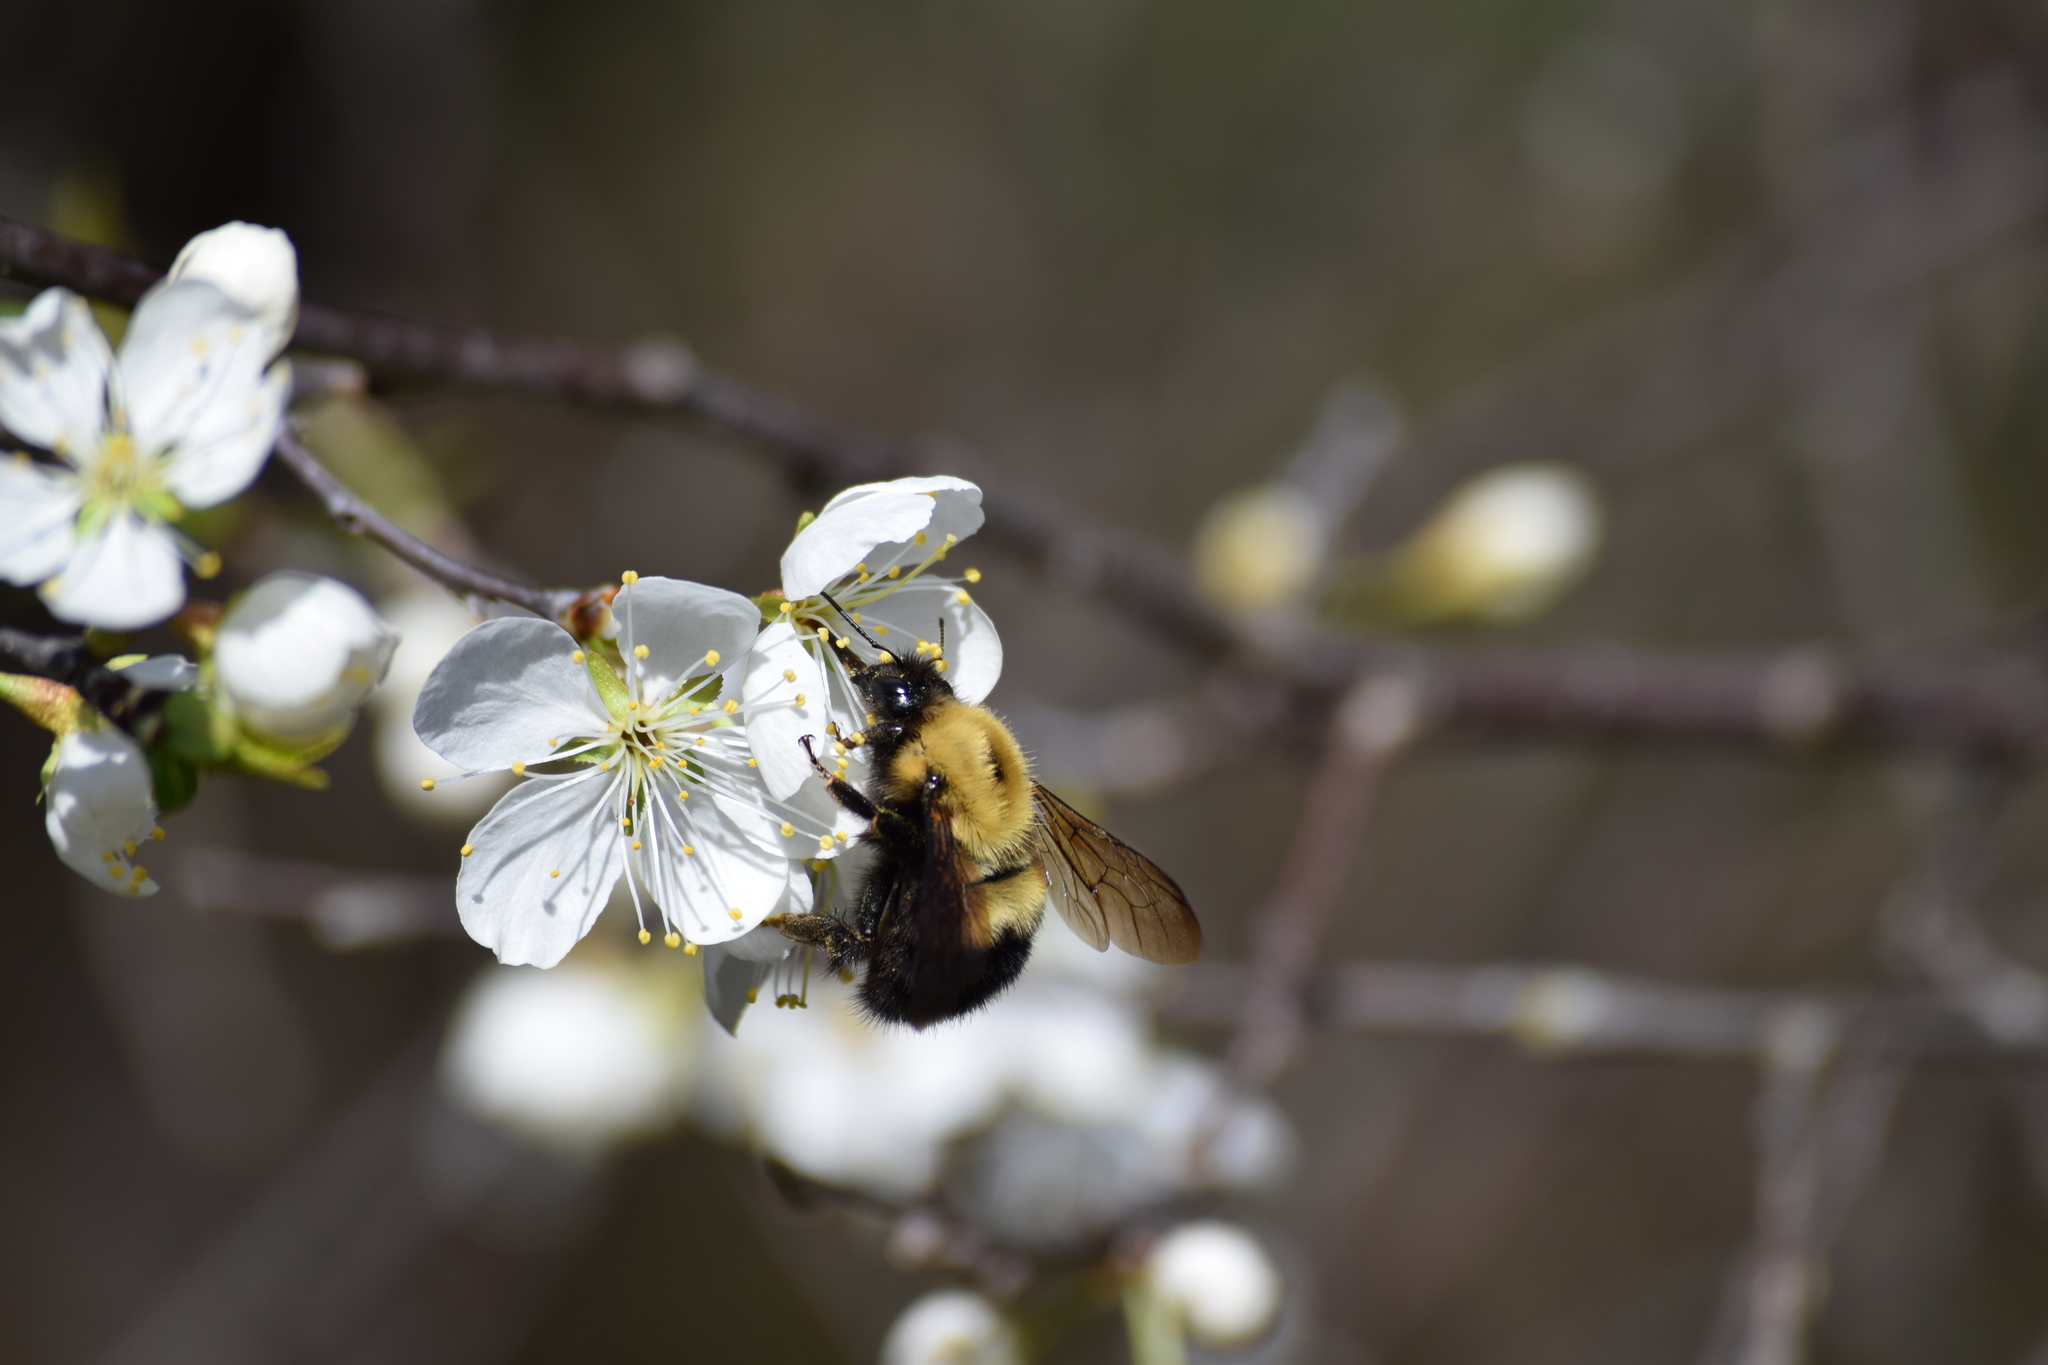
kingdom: Animalia
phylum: Arthropoda
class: Insecta
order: Hymenoptera
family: Apidae
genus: Bombus
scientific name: Bombus perplexus
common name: Confusing bumble bee
